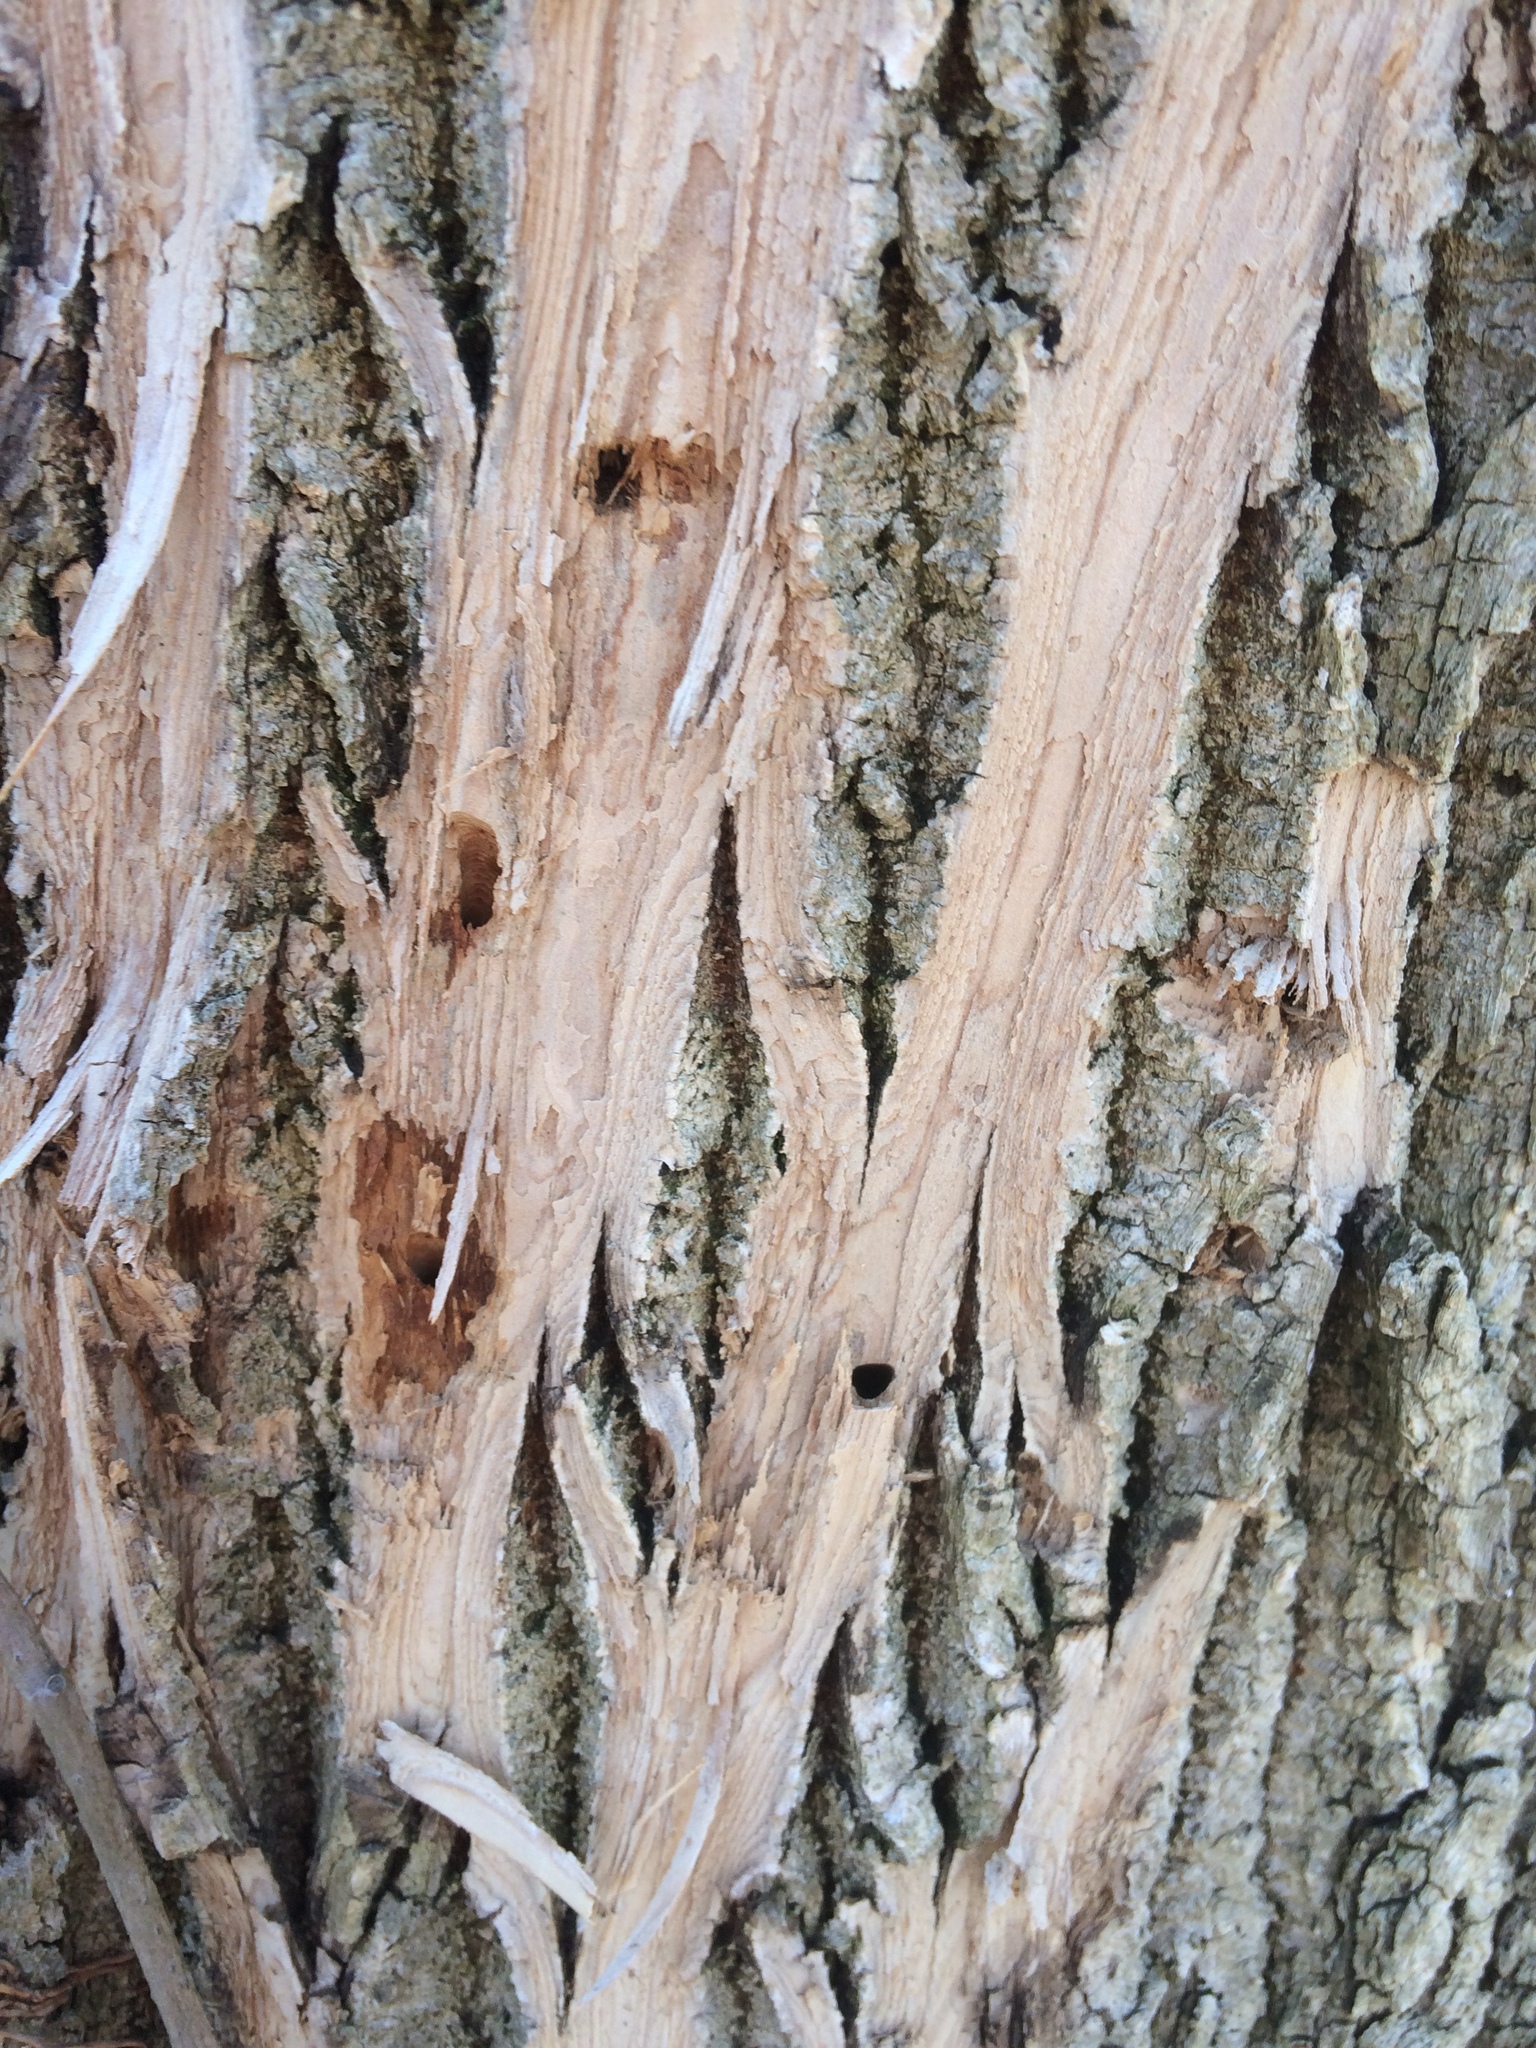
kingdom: Animalia
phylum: Arthropoda
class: Insecta
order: Coleoptera
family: Buprestidae
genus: Agrilus
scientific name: Agrilus planipennis
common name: Emerald ash borer
